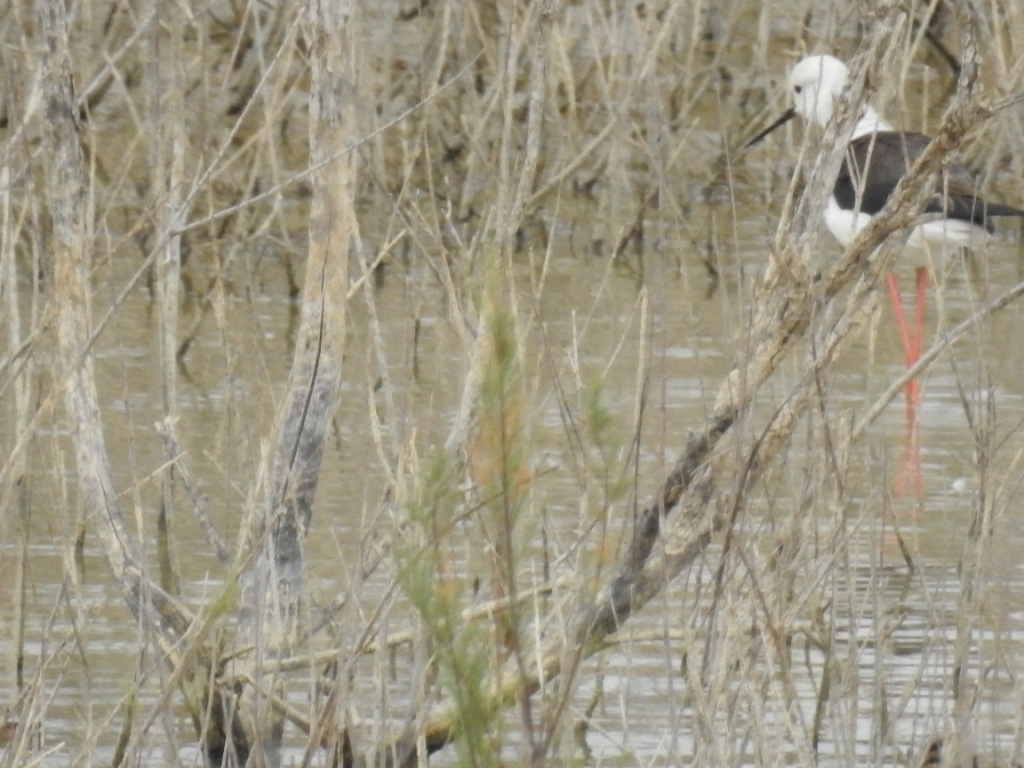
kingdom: Animalia
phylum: Chordata
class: Aves
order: Charadriiformes
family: Recurvirostridae
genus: Himantopus
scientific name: Himantopus himantopus
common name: Black-winged stilt
